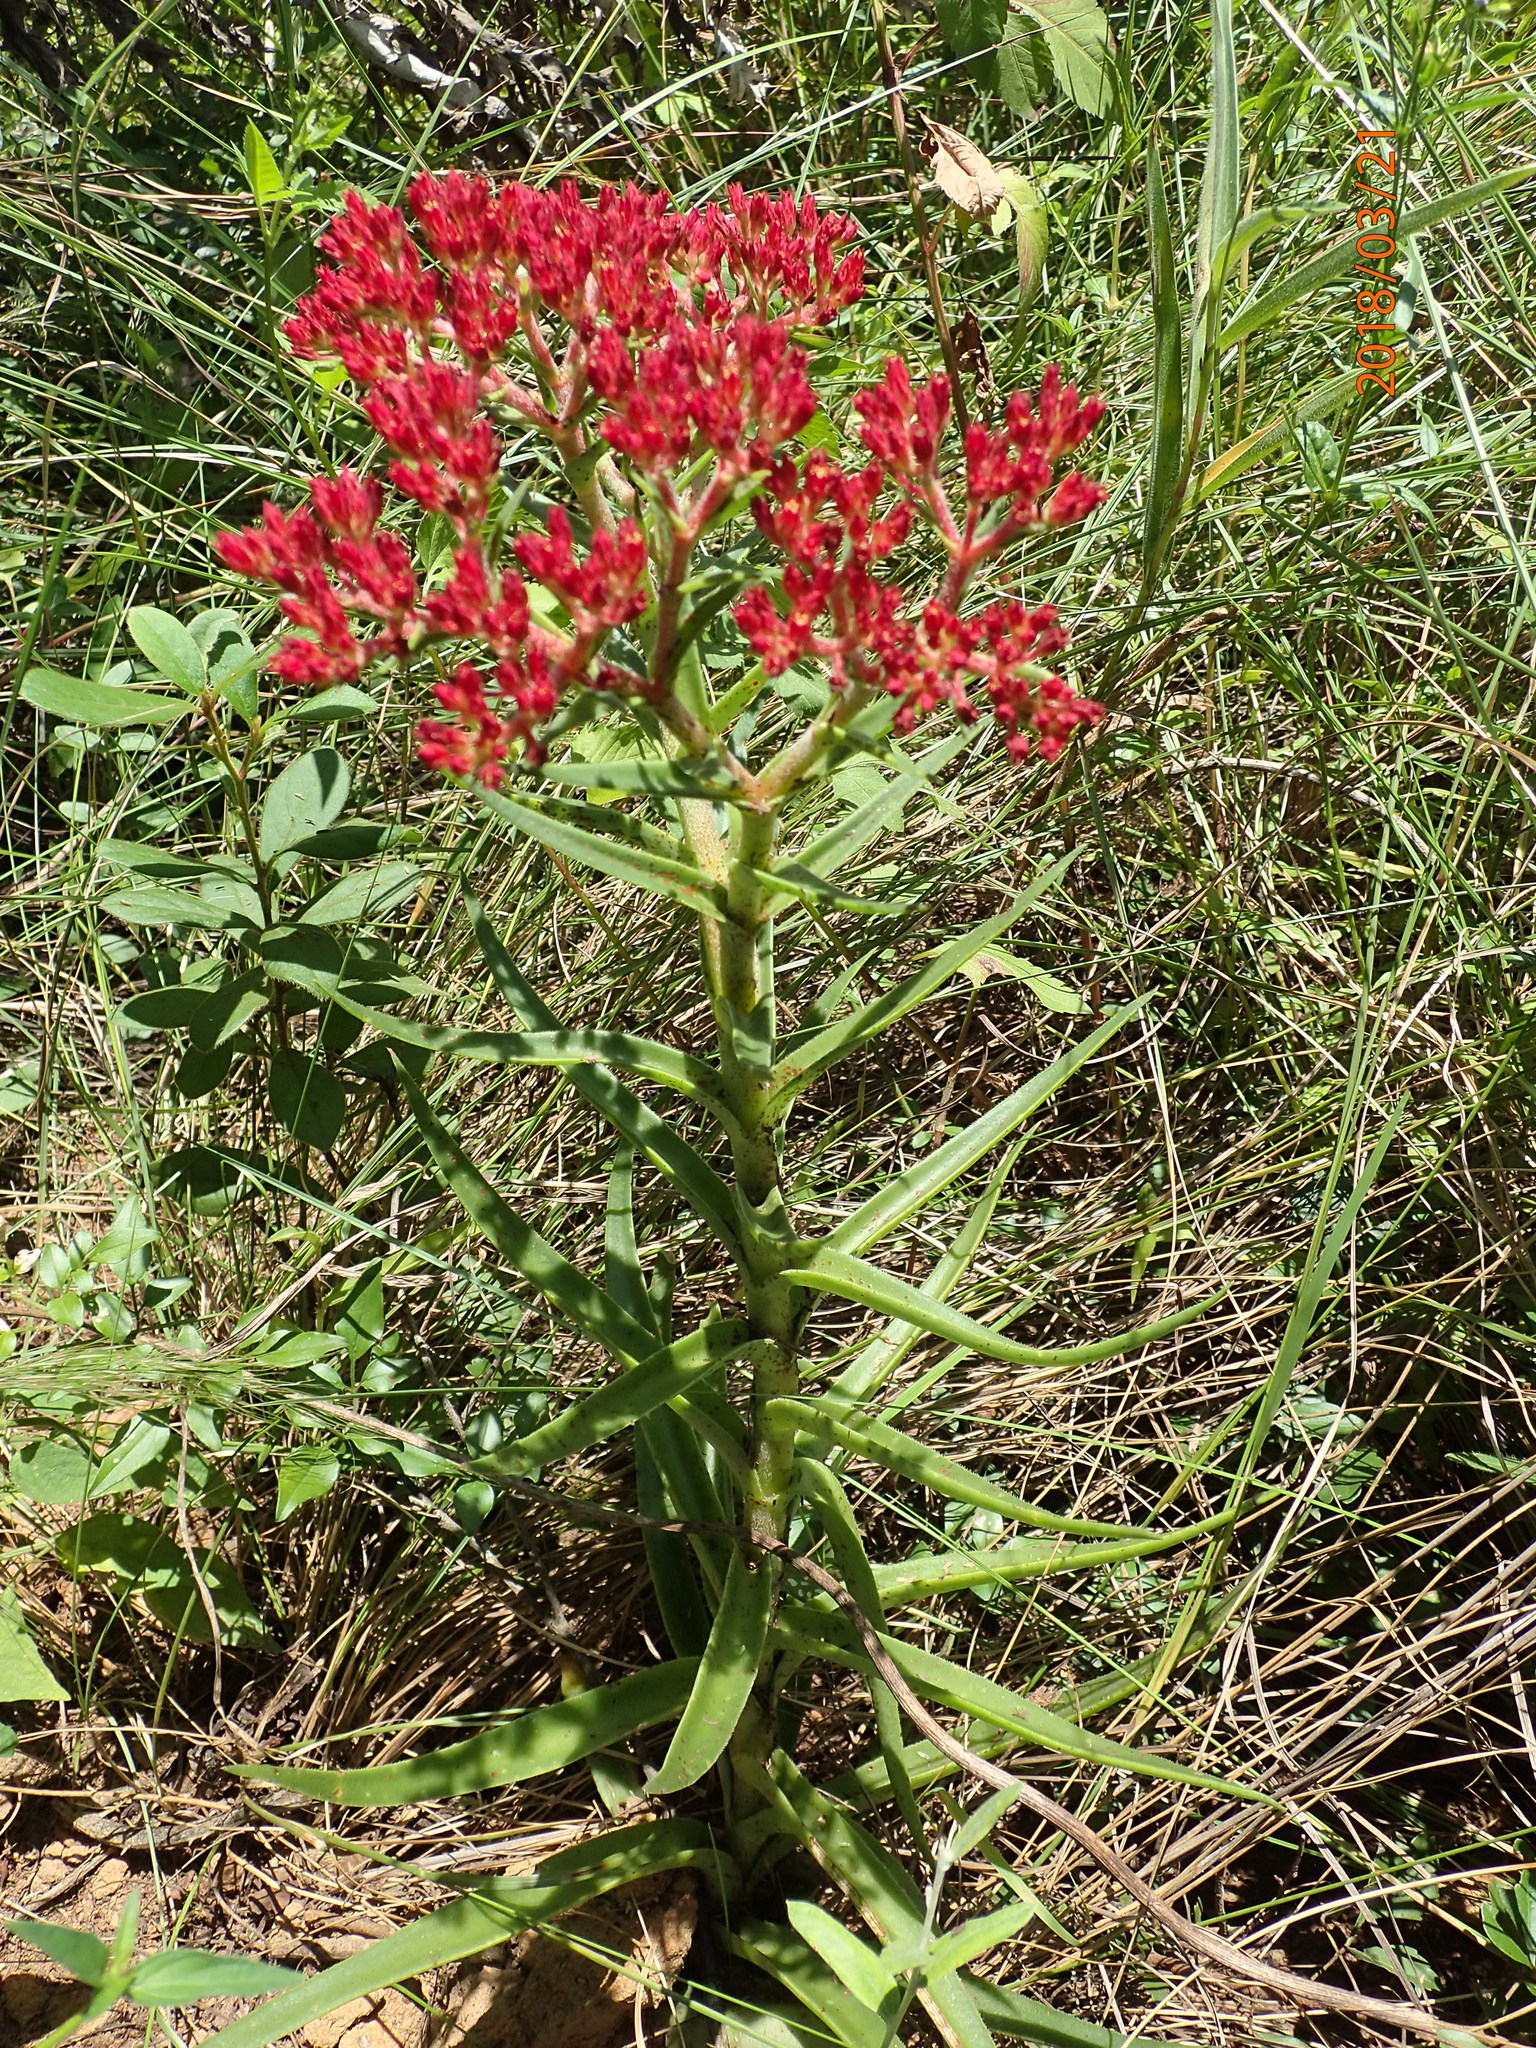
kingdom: Plantae
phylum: Tracheophyta
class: Magnoliopsida
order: Saxifragales
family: Crassulaceae
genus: Crassula
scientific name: Crassula alba
